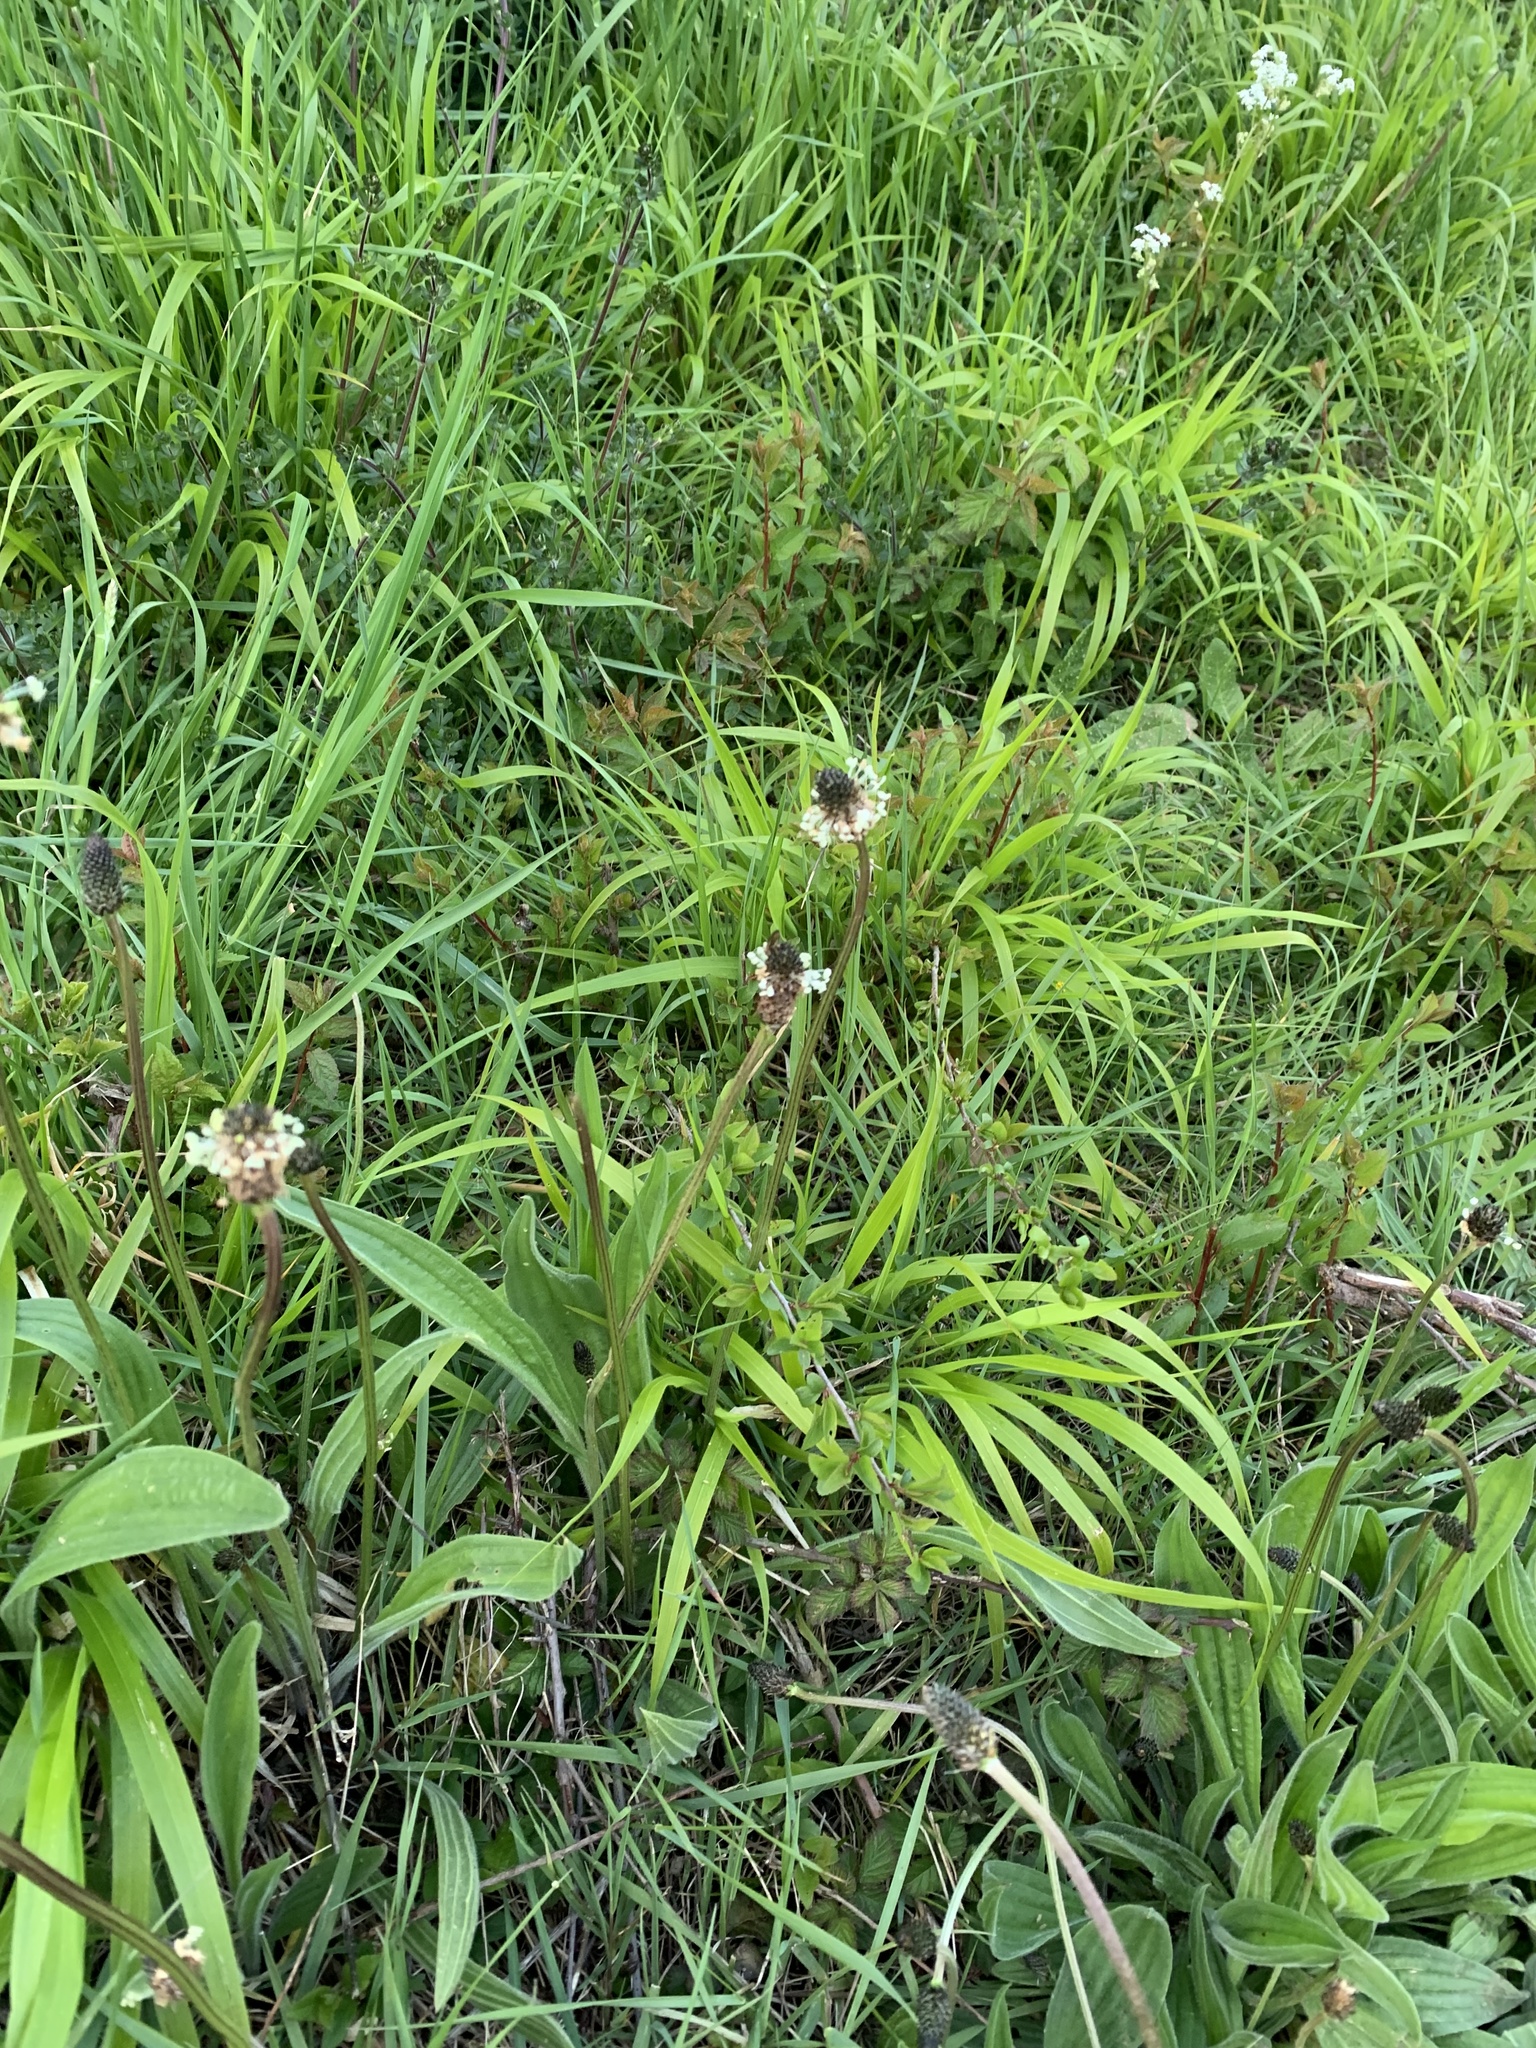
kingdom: Plantae
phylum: Tracheophyta
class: Magnoliopsida
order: Lamiales
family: Plantaginaceae
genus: Plantago
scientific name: Plantago lanceolata
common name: Ribwort plantain
